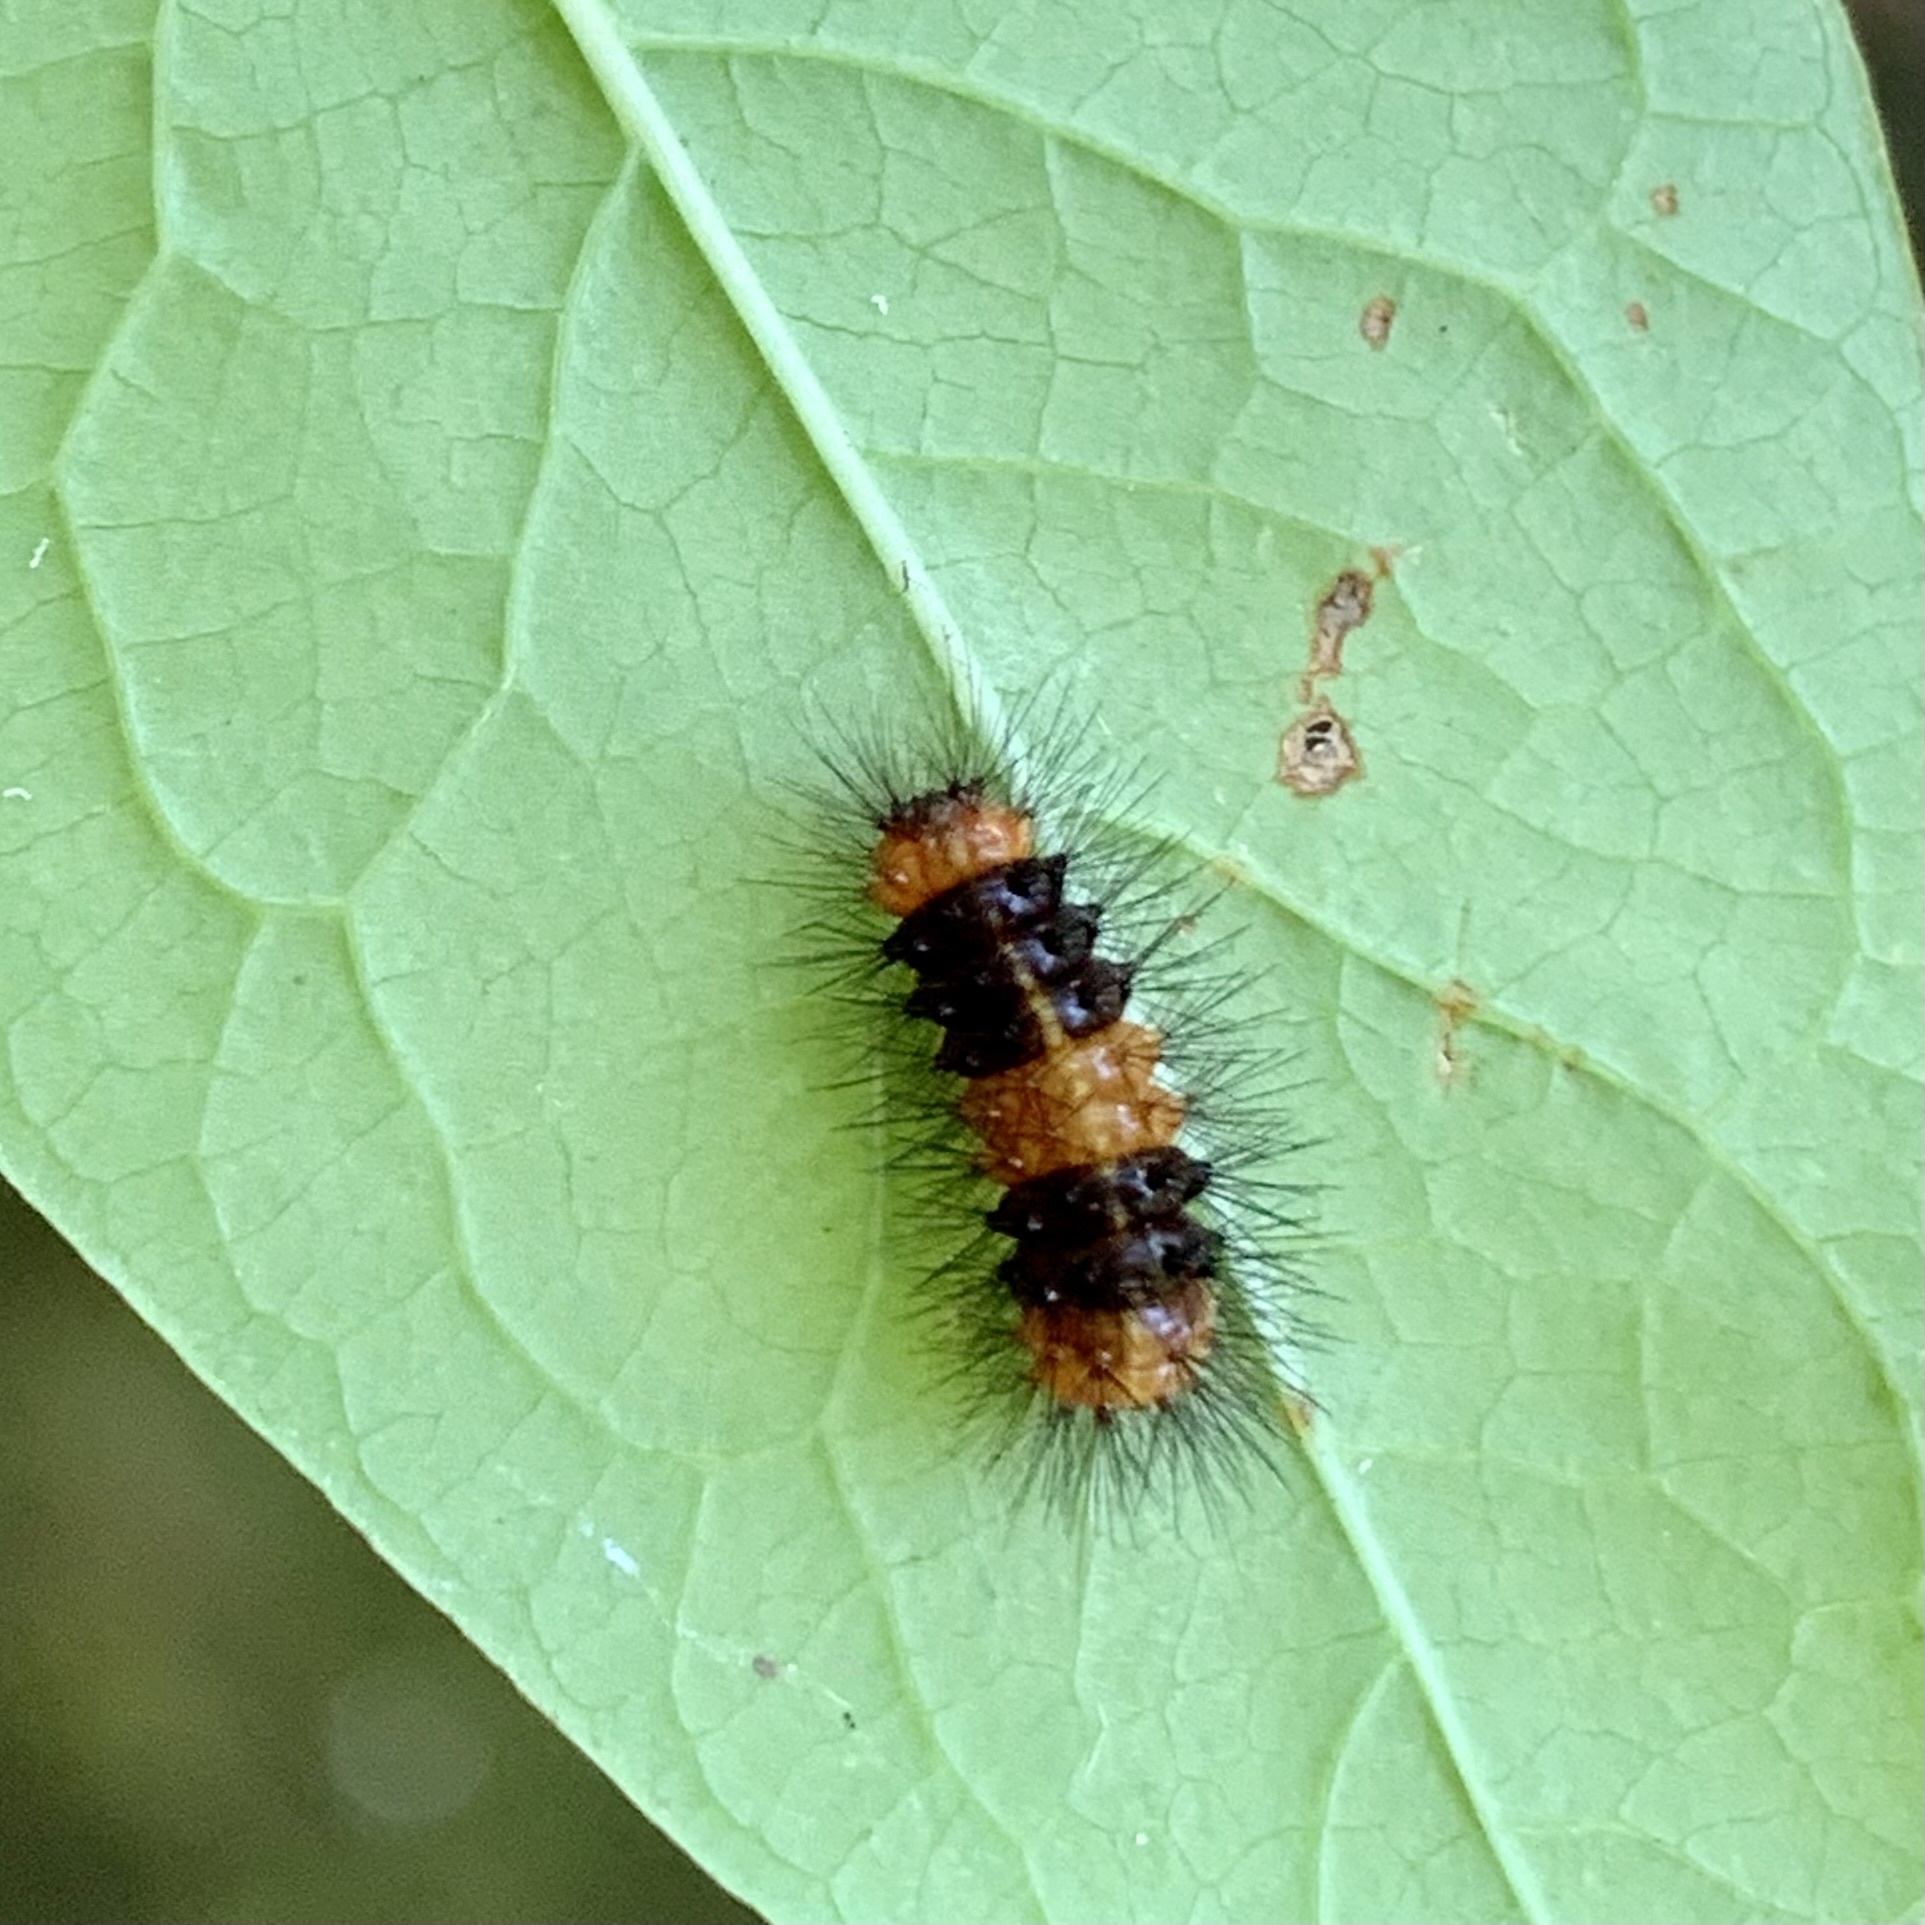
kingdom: Animalia
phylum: Arthropoda
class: Insecta
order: Lepidoptera
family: Erebidae
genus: Hypercompe
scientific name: Hypercompe scribonia
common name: Giant leopard moth
